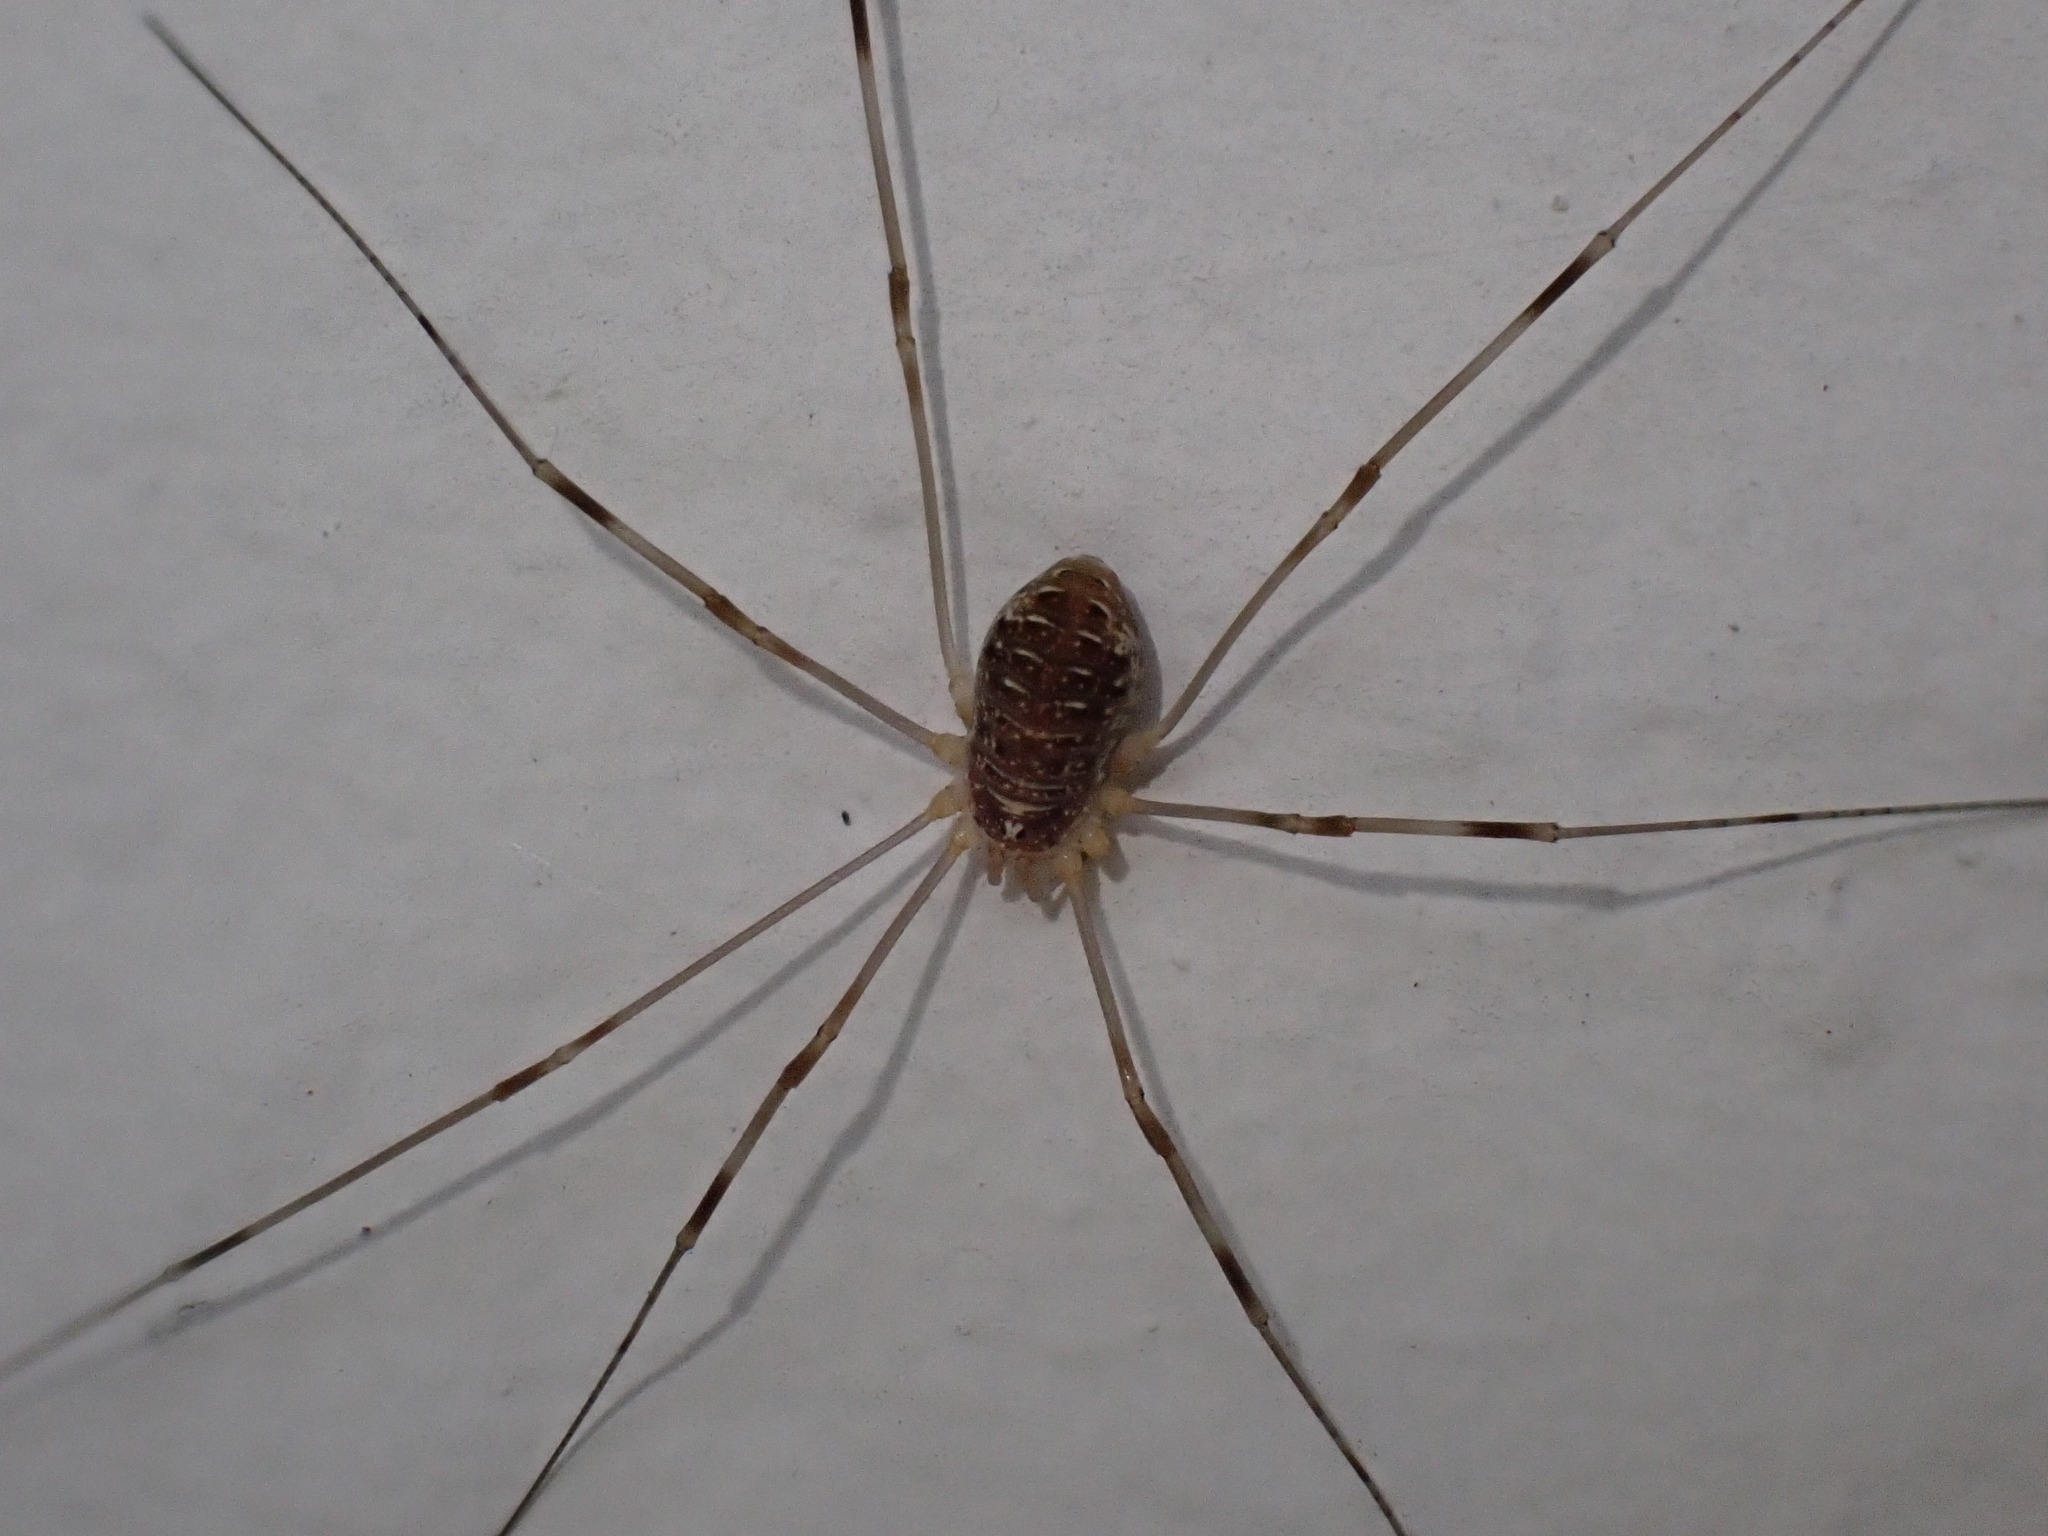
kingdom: Animalia
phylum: Arthropoda
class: Arachnida
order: Opiliones
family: Phalangiidae
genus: Opilio
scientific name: Opilio canestrinii
